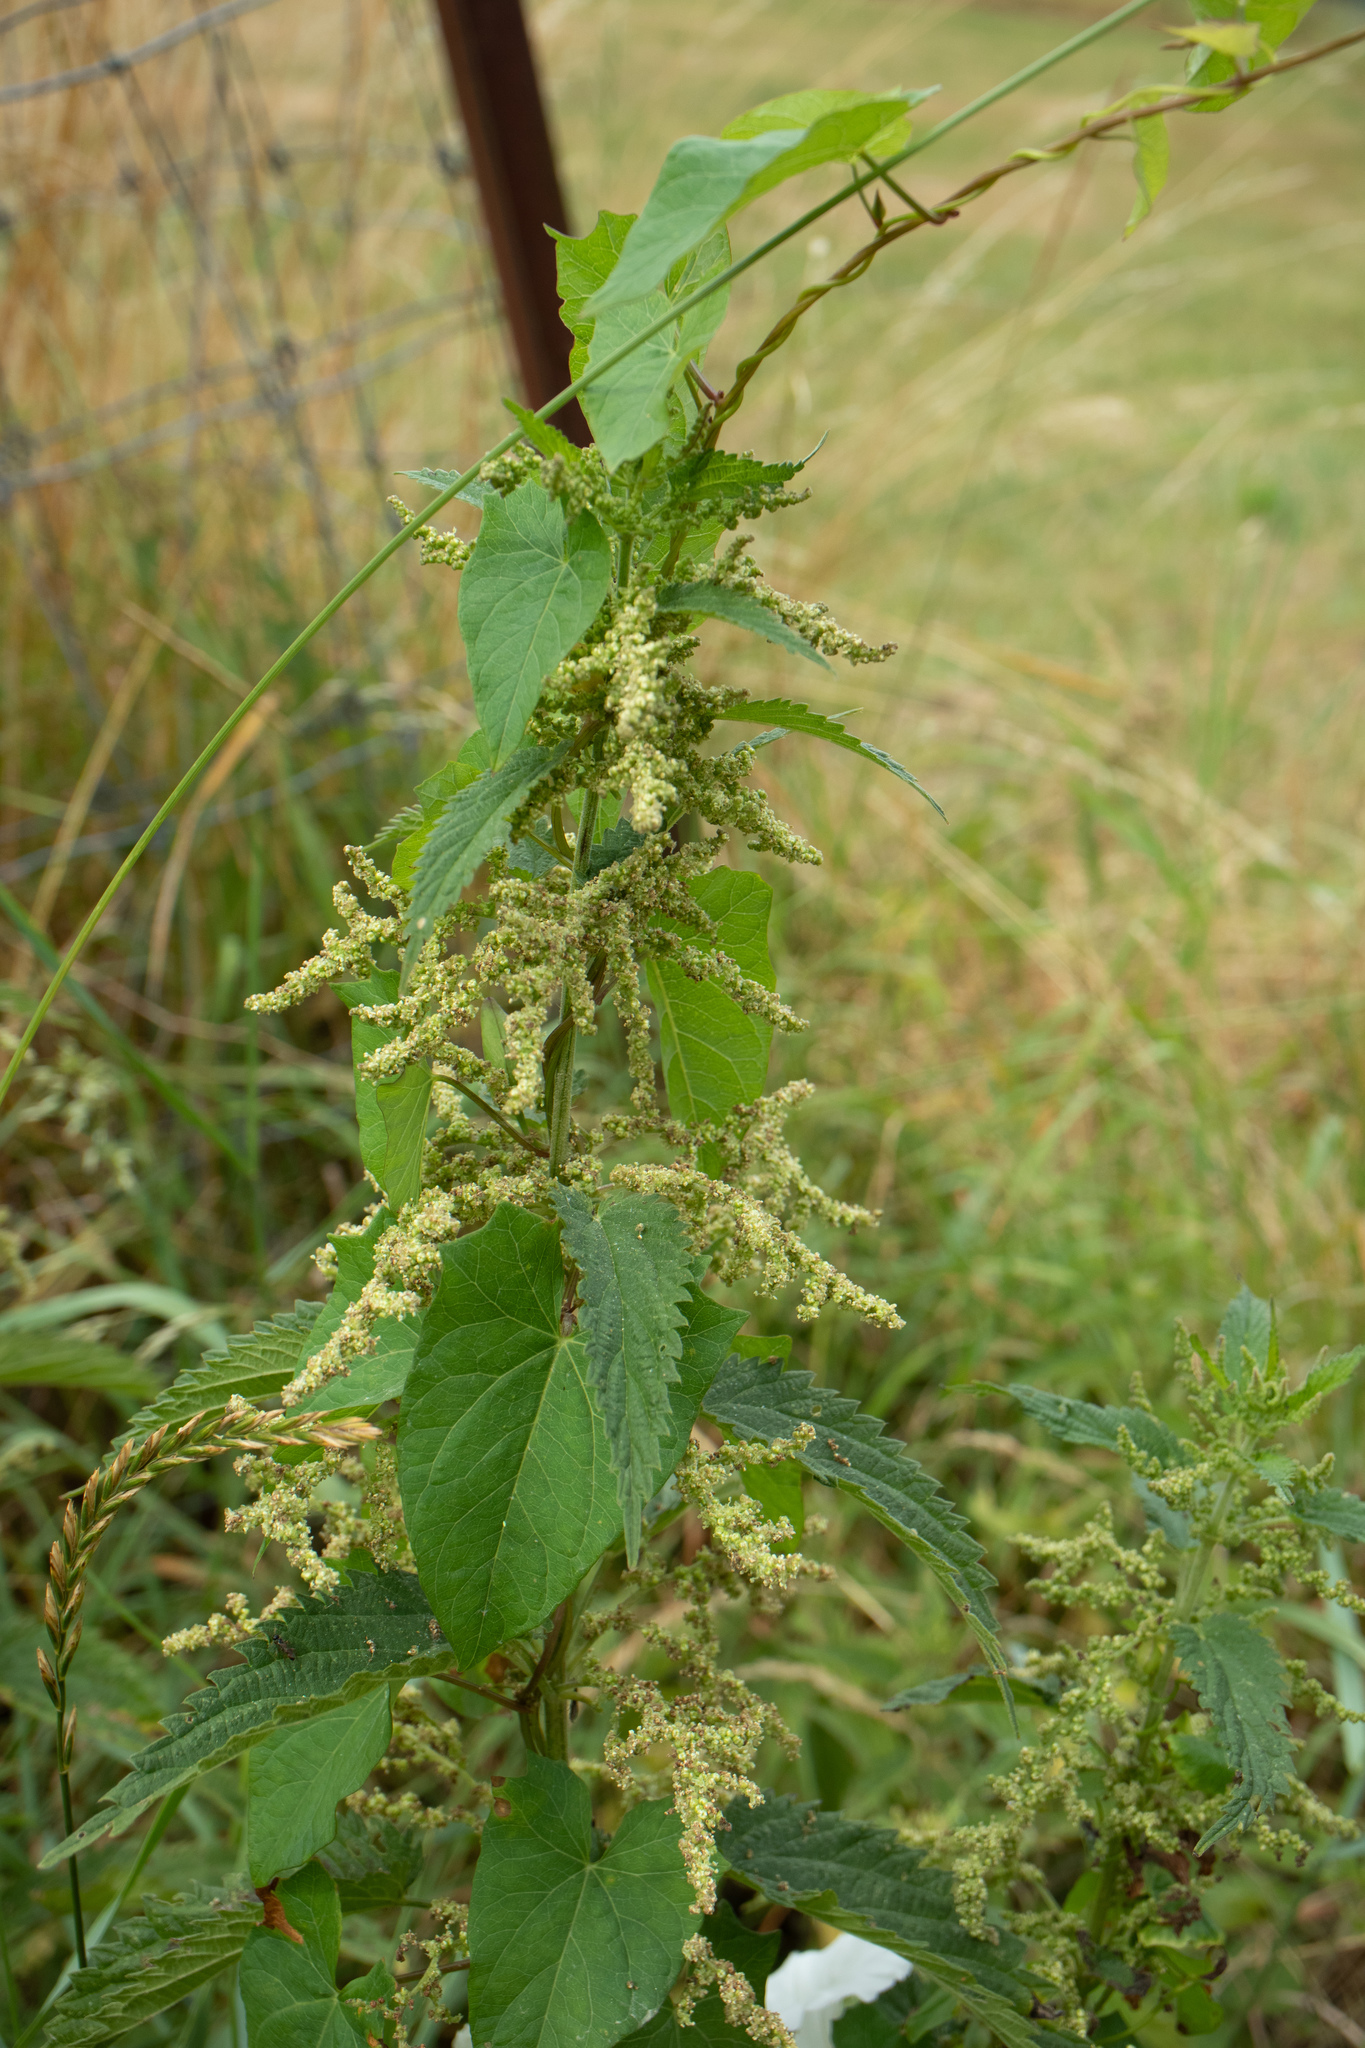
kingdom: Plantae
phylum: Tracheophyta
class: Magnoliopsida
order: Rosales
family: Urticaceae
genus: Urtica
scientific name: Urtica dioica
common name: Common nettle
